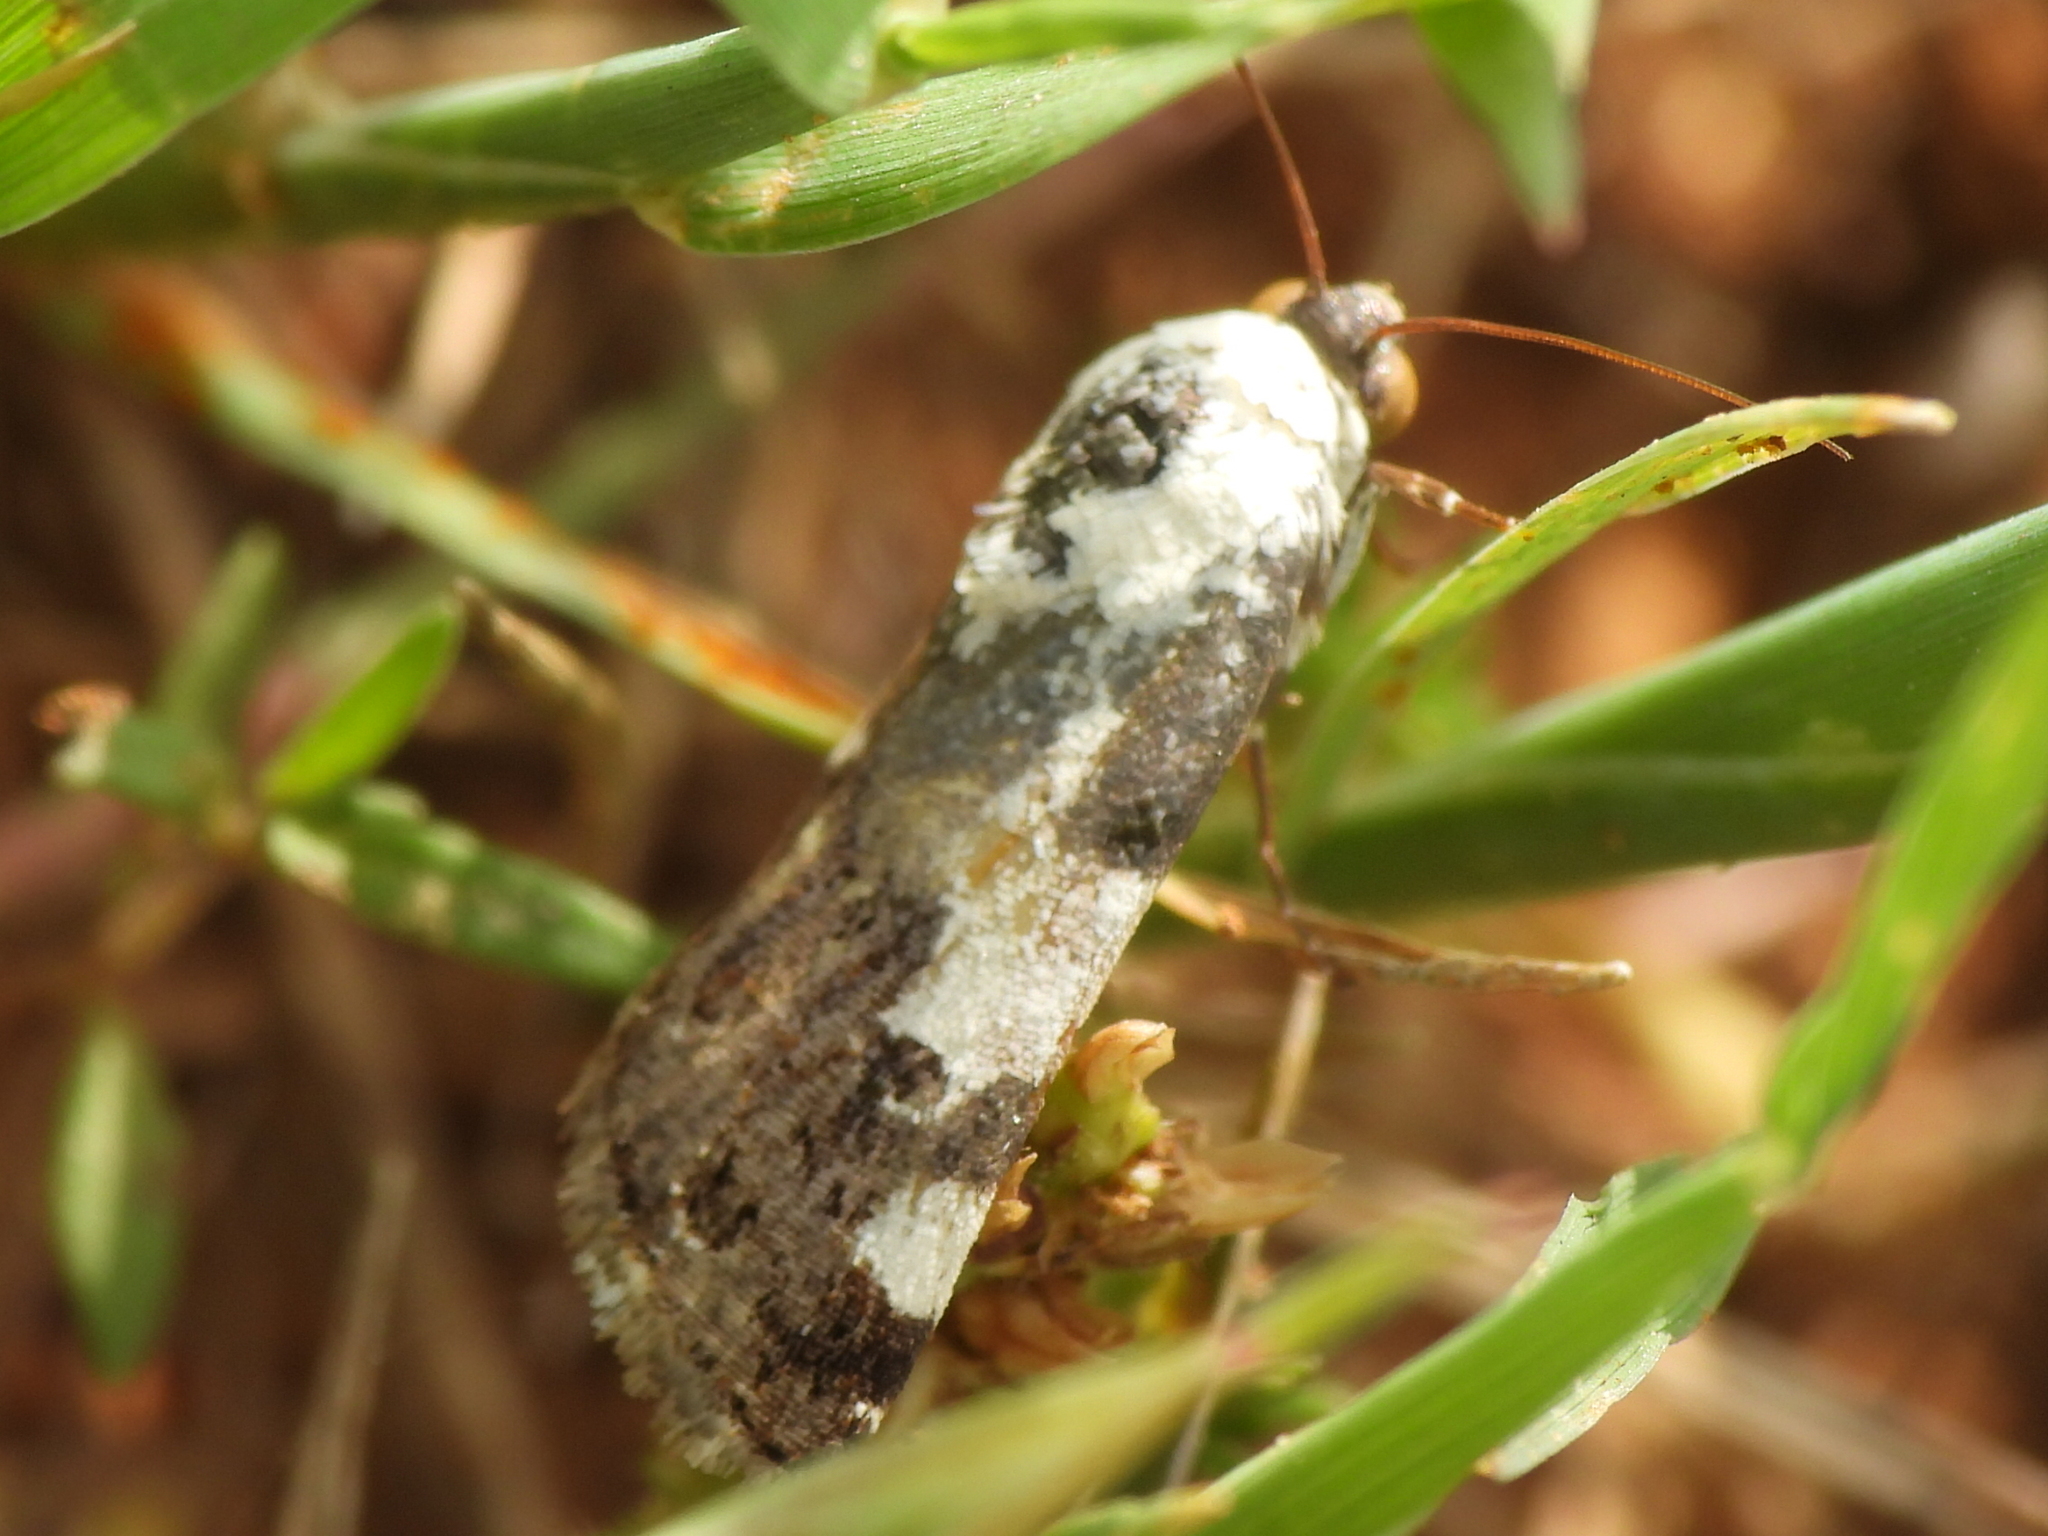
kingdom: Animalia
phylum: Arthropoda
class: Insecta
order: Lepidoptera
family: Noctuidae
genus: Acontia
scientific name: Acontia aprica
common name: Nun
